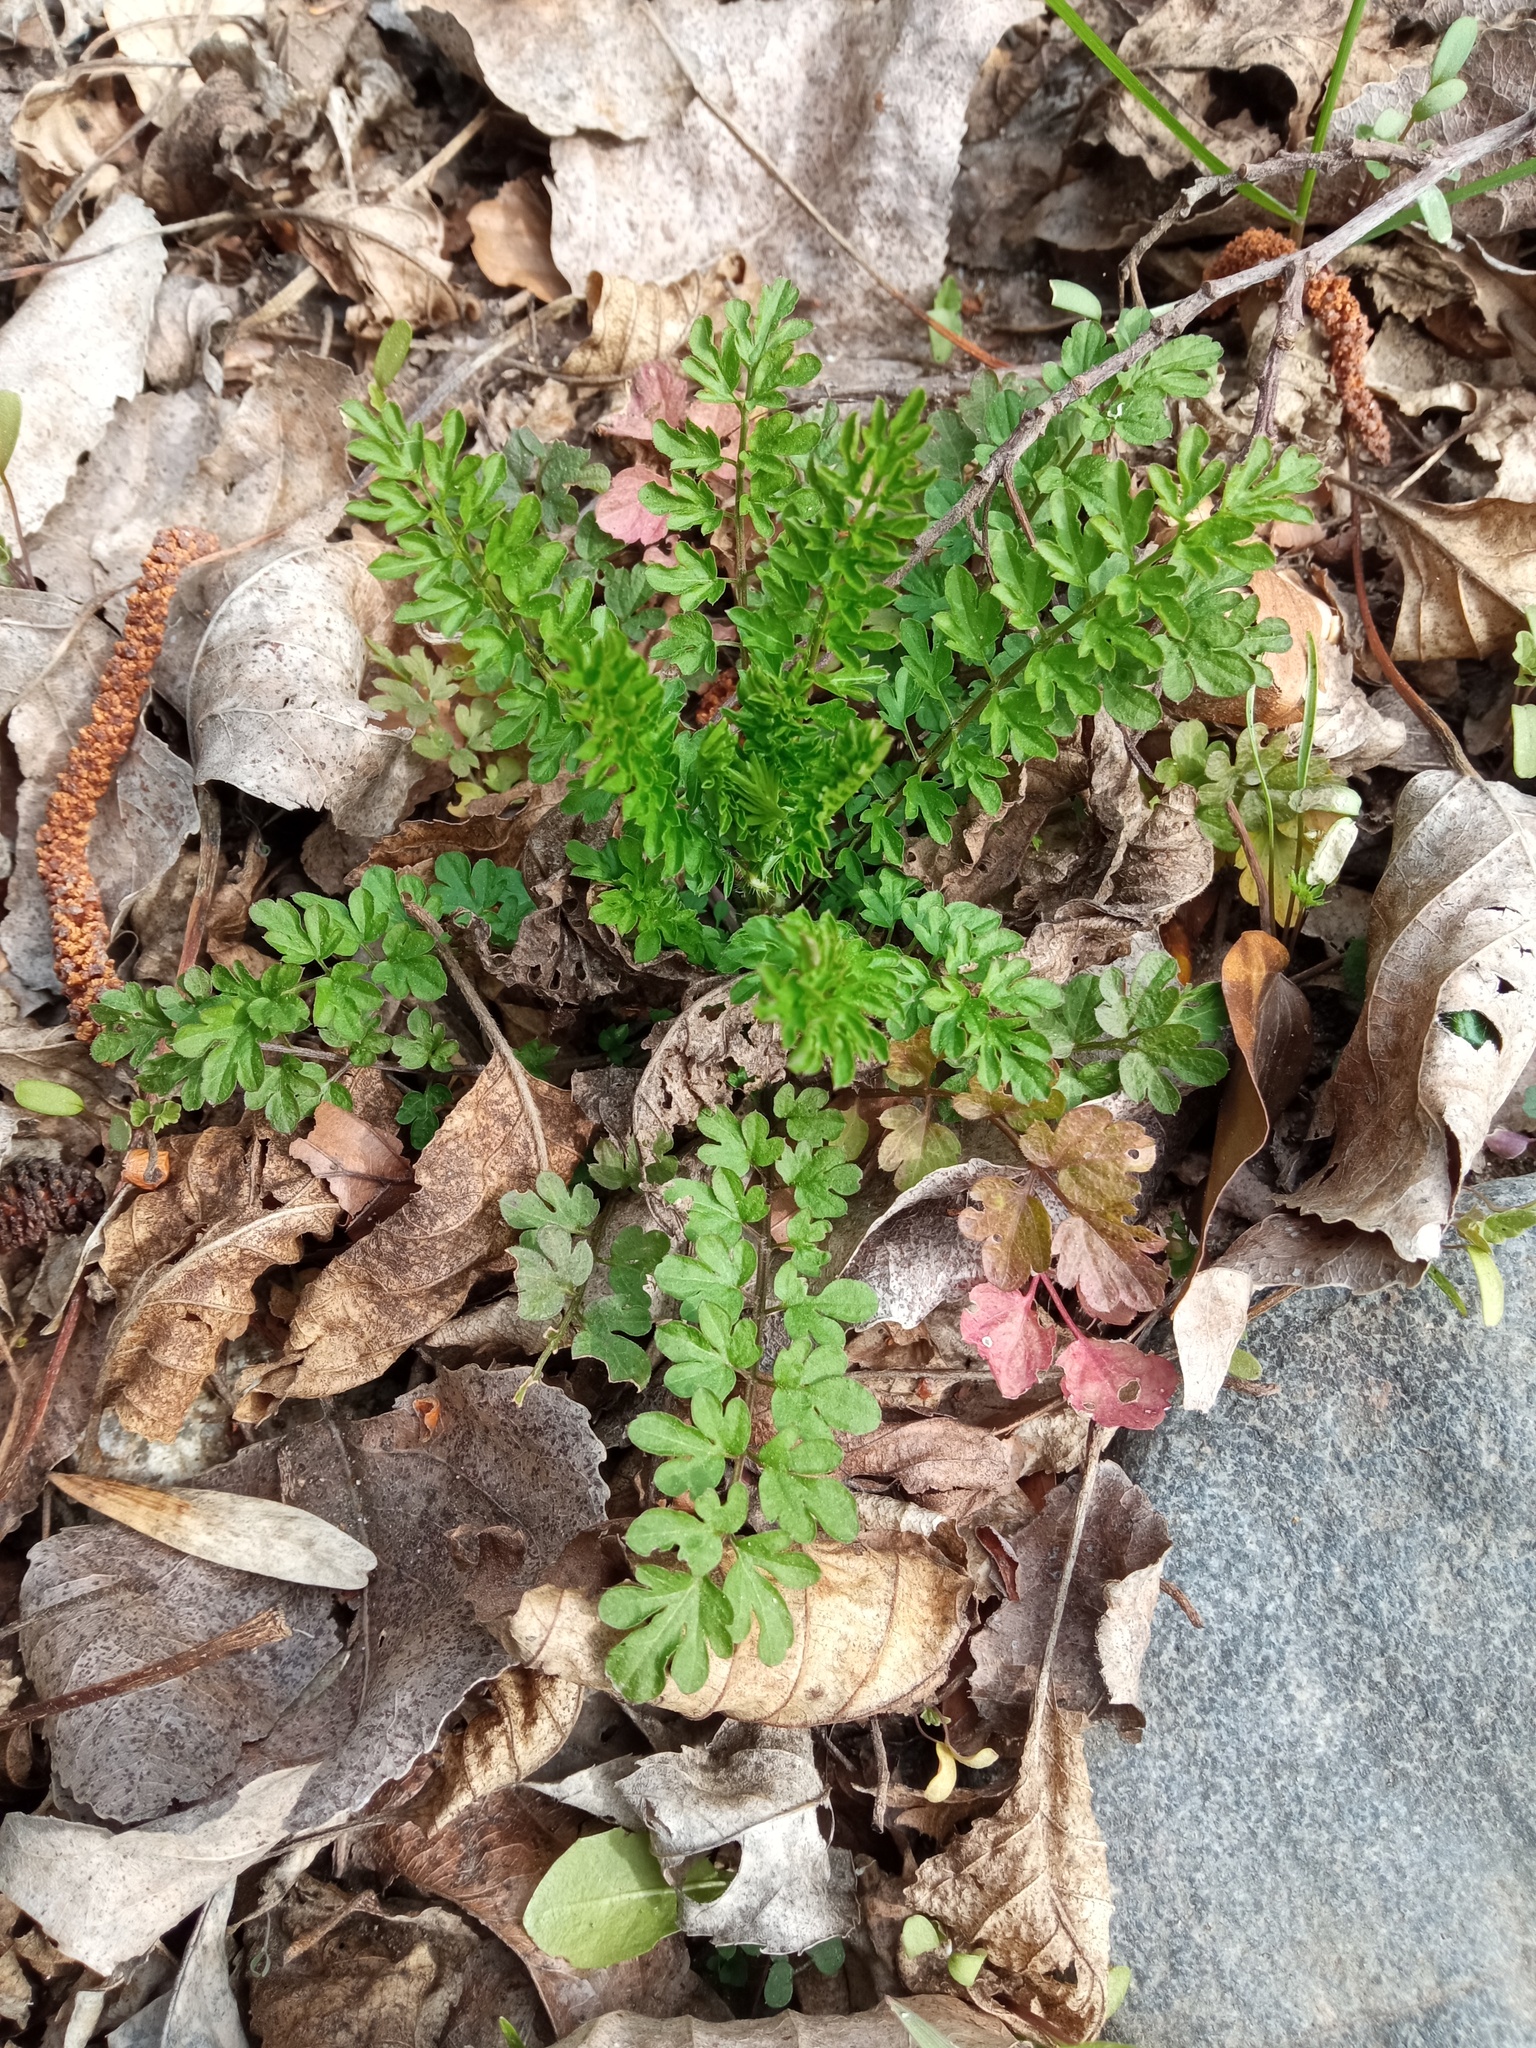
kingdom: Plantae
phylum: Tracheophyta
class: Magnoliopsida
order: Brassicales
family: Brassicaceae
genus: Cardamine
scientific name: Cardamine impatiens
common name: Narrow-leaved bitter-cress
